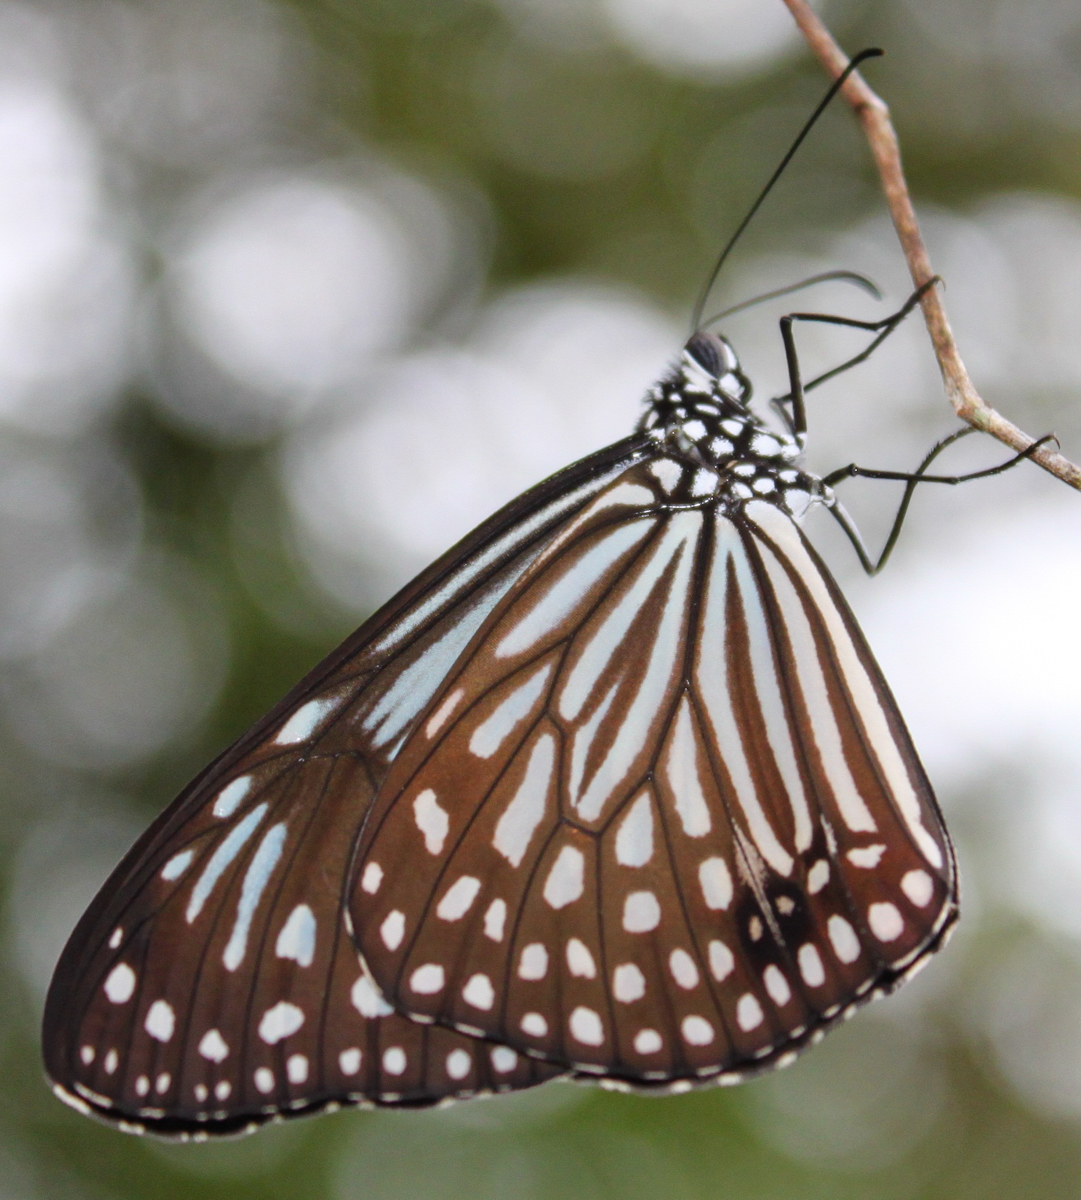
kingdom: Animalia
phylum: Arthropoda
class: Insecta
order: Lepidoptera
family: Nymphalidae
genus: Parantica
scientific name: Parantica agleoides
